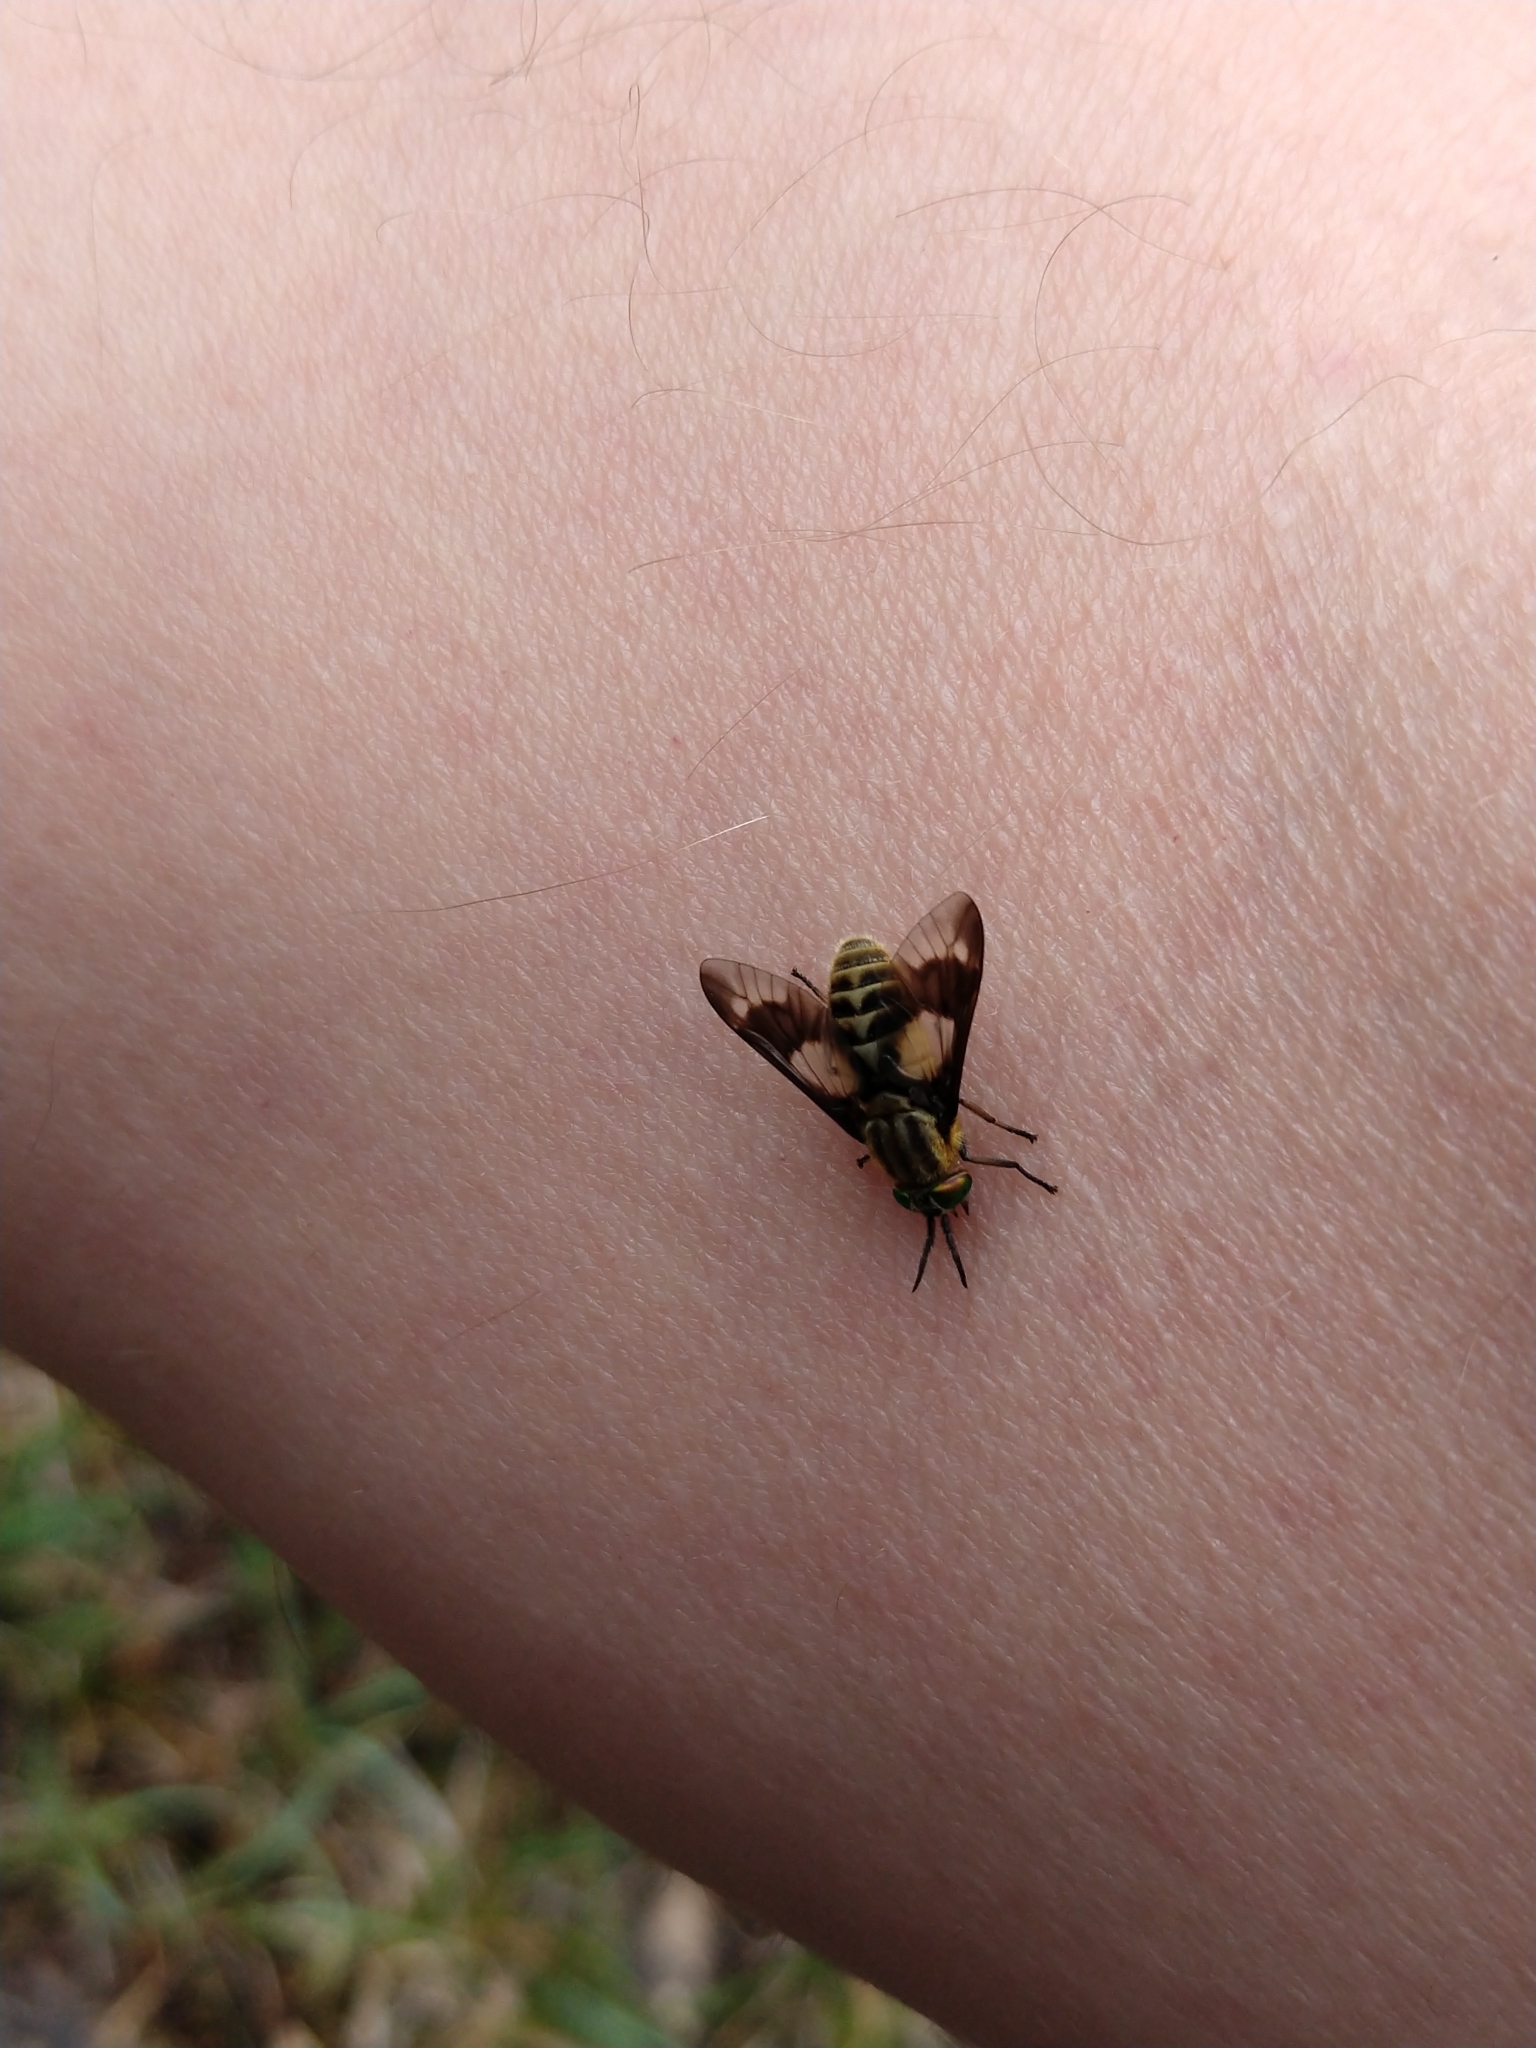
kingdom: Animalia
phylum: Arthropoda
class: Insecta
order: Diptera
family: Tabanidae
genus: Chrysops
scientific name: Chrysops relictus
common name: Twin-lobed deerfly
